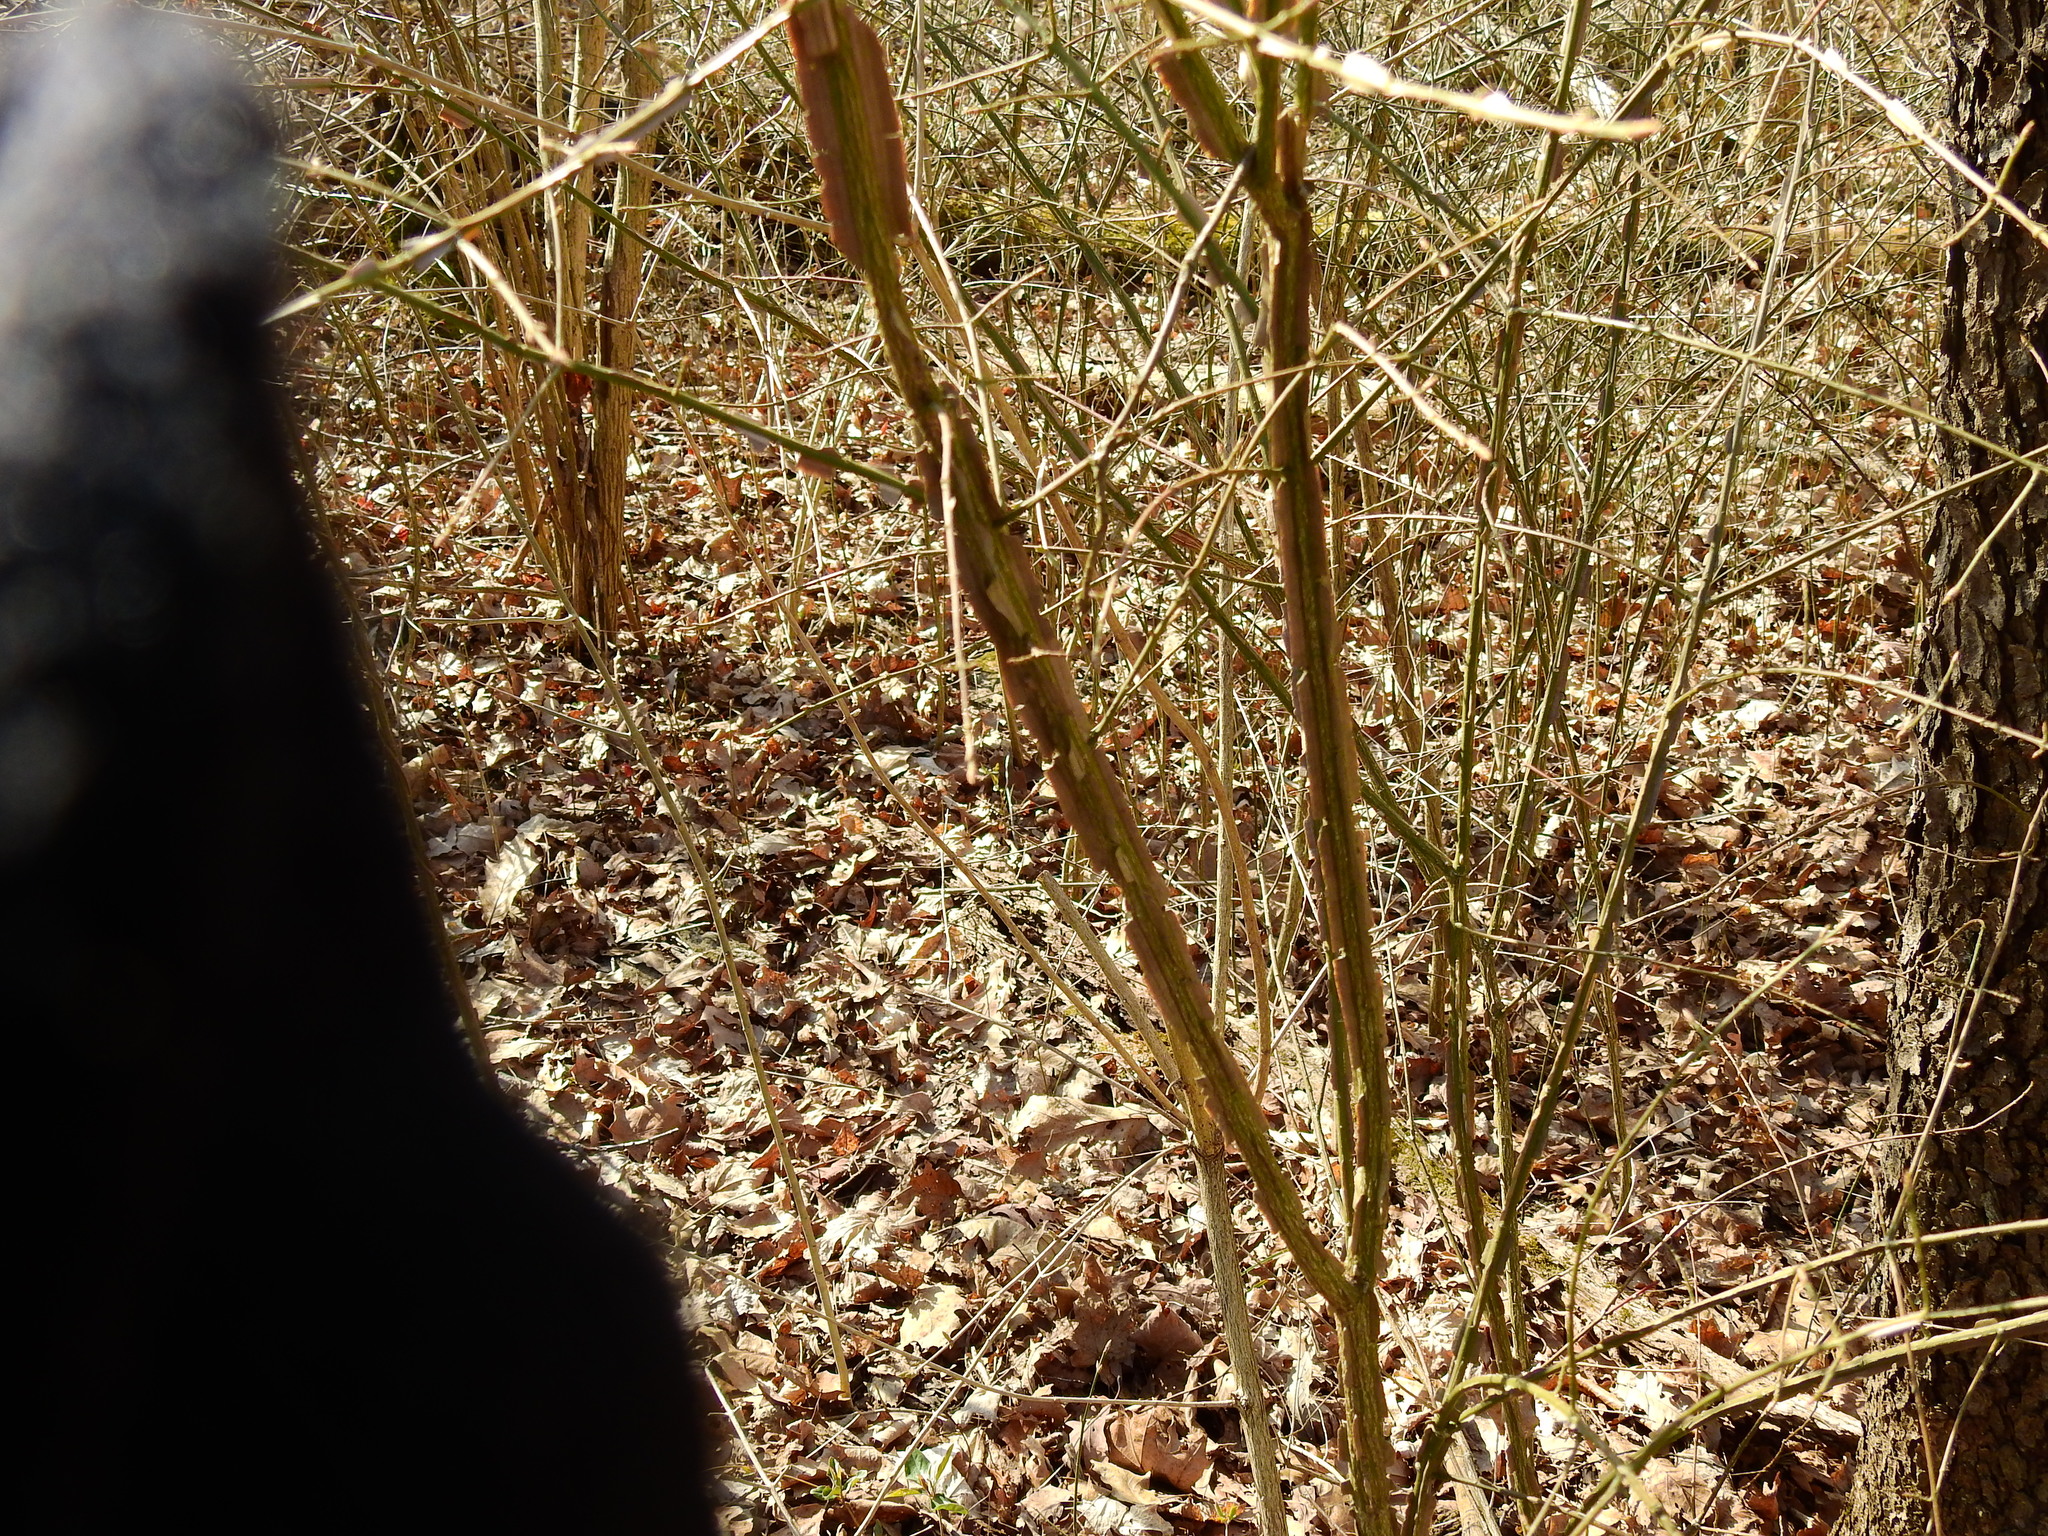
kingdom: Plantae
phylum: Tracheophyta
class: Magnoliopsida
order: Celastrales
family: Celastraceae
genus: Euonymus
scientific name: Euonymus alatus
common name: Winged euonymus
